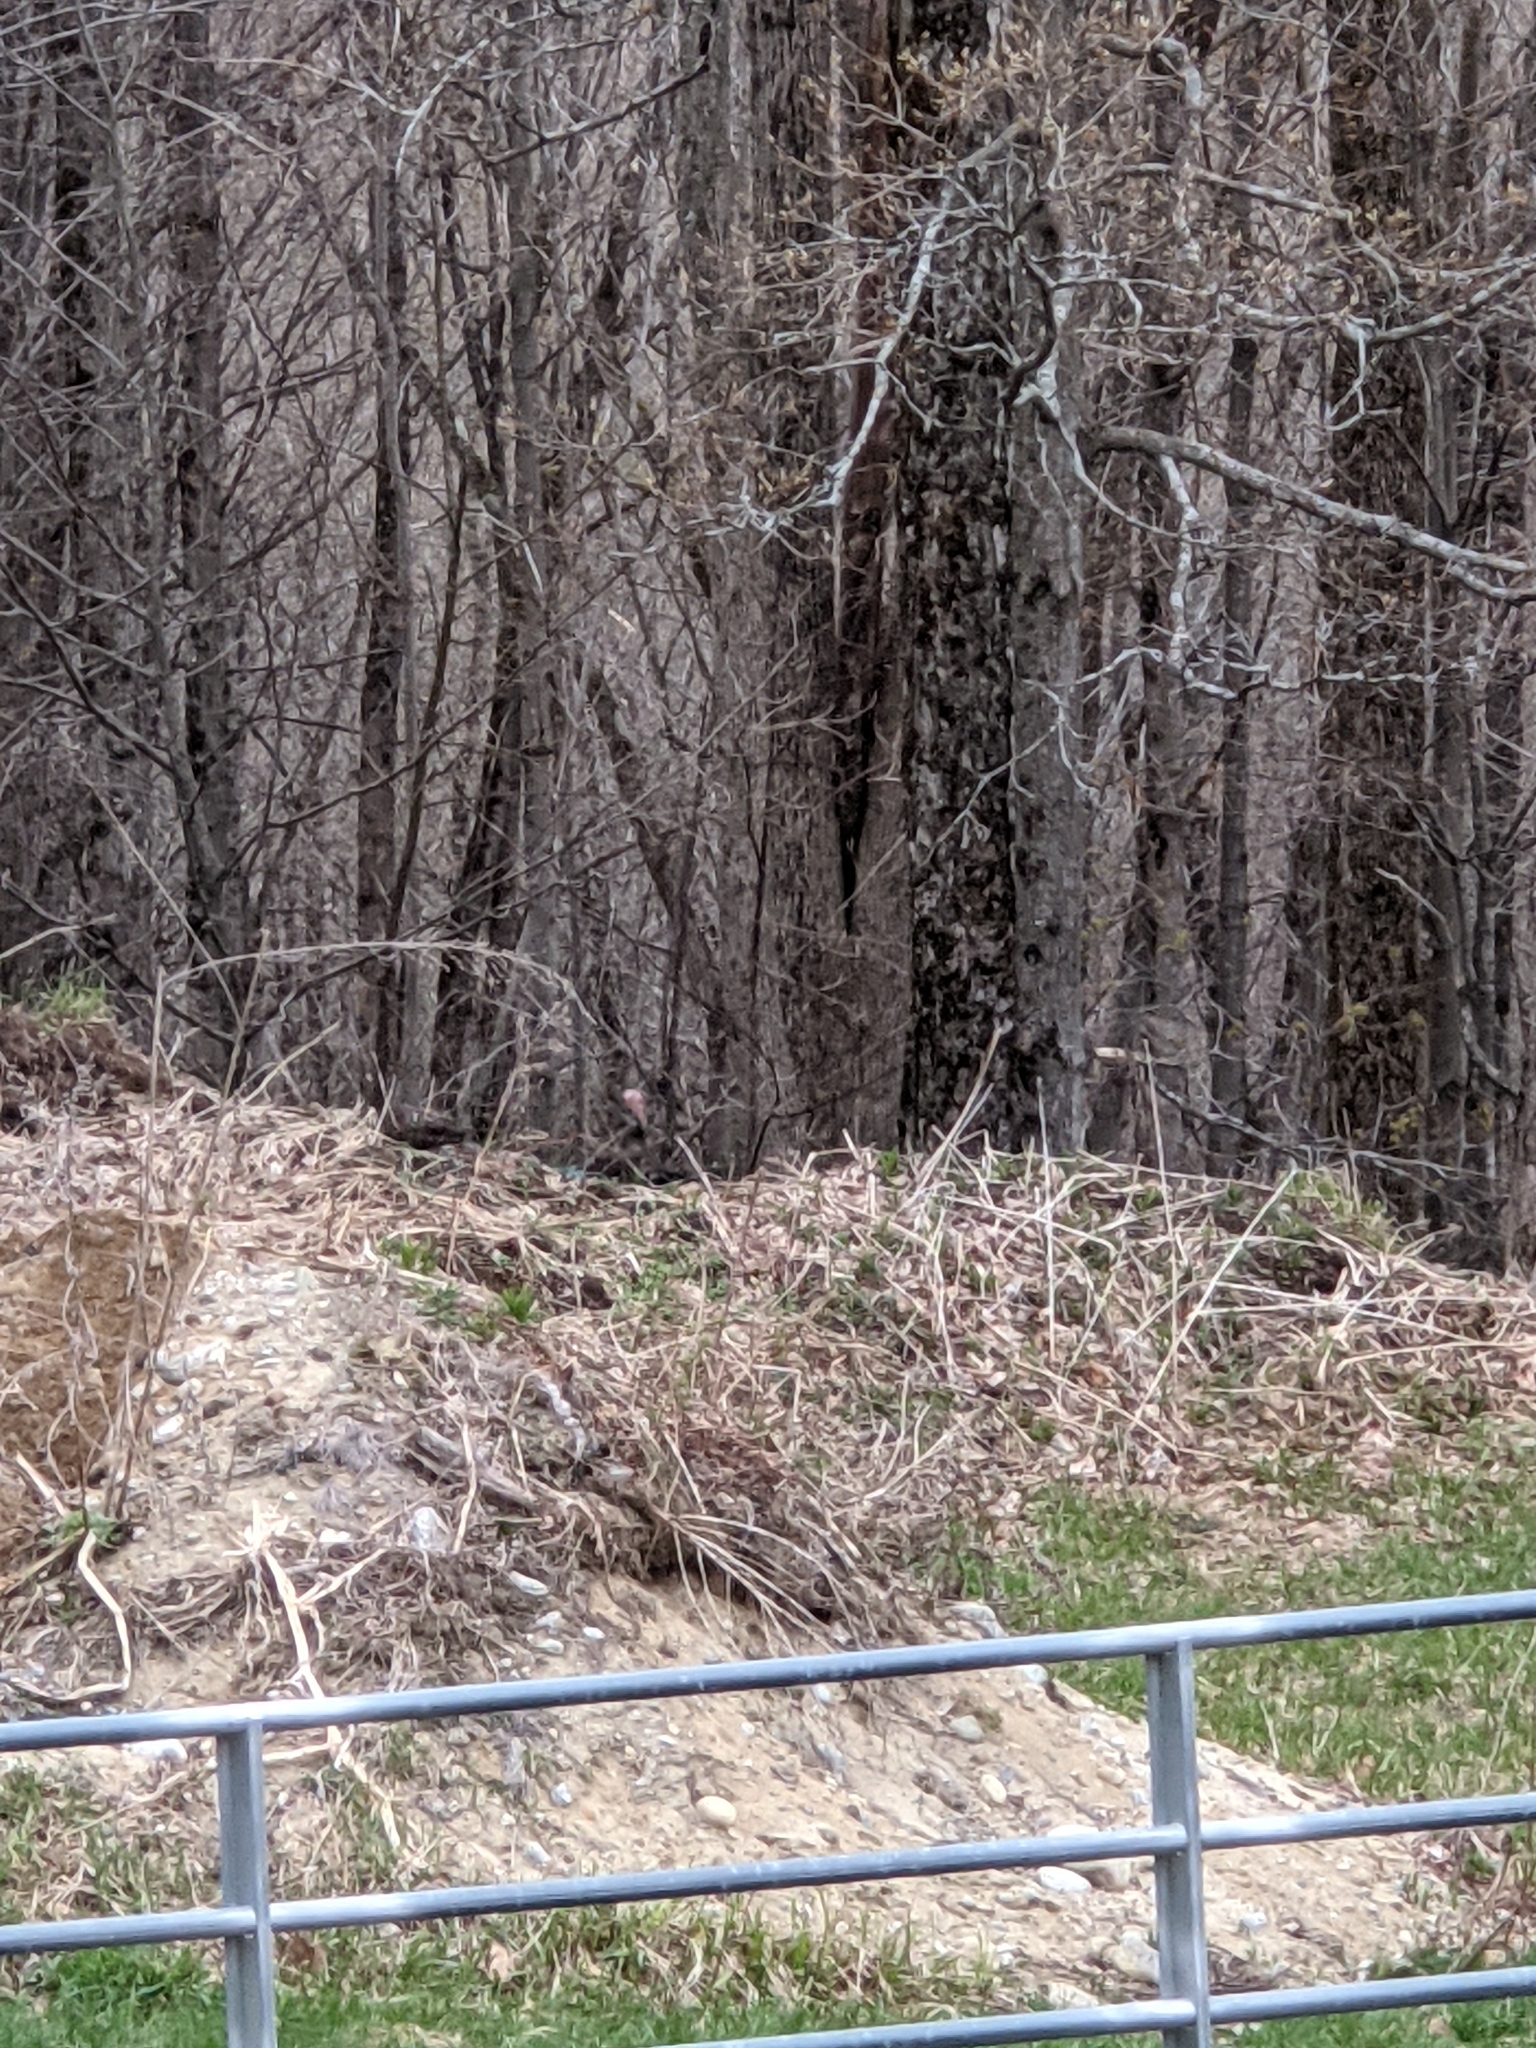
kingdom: Animalia
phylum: Chordata
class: Aves
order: Galliformes
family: Phasianidae
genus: Meleagris
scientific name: Meleagris gallopavo
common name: Wild turkey
